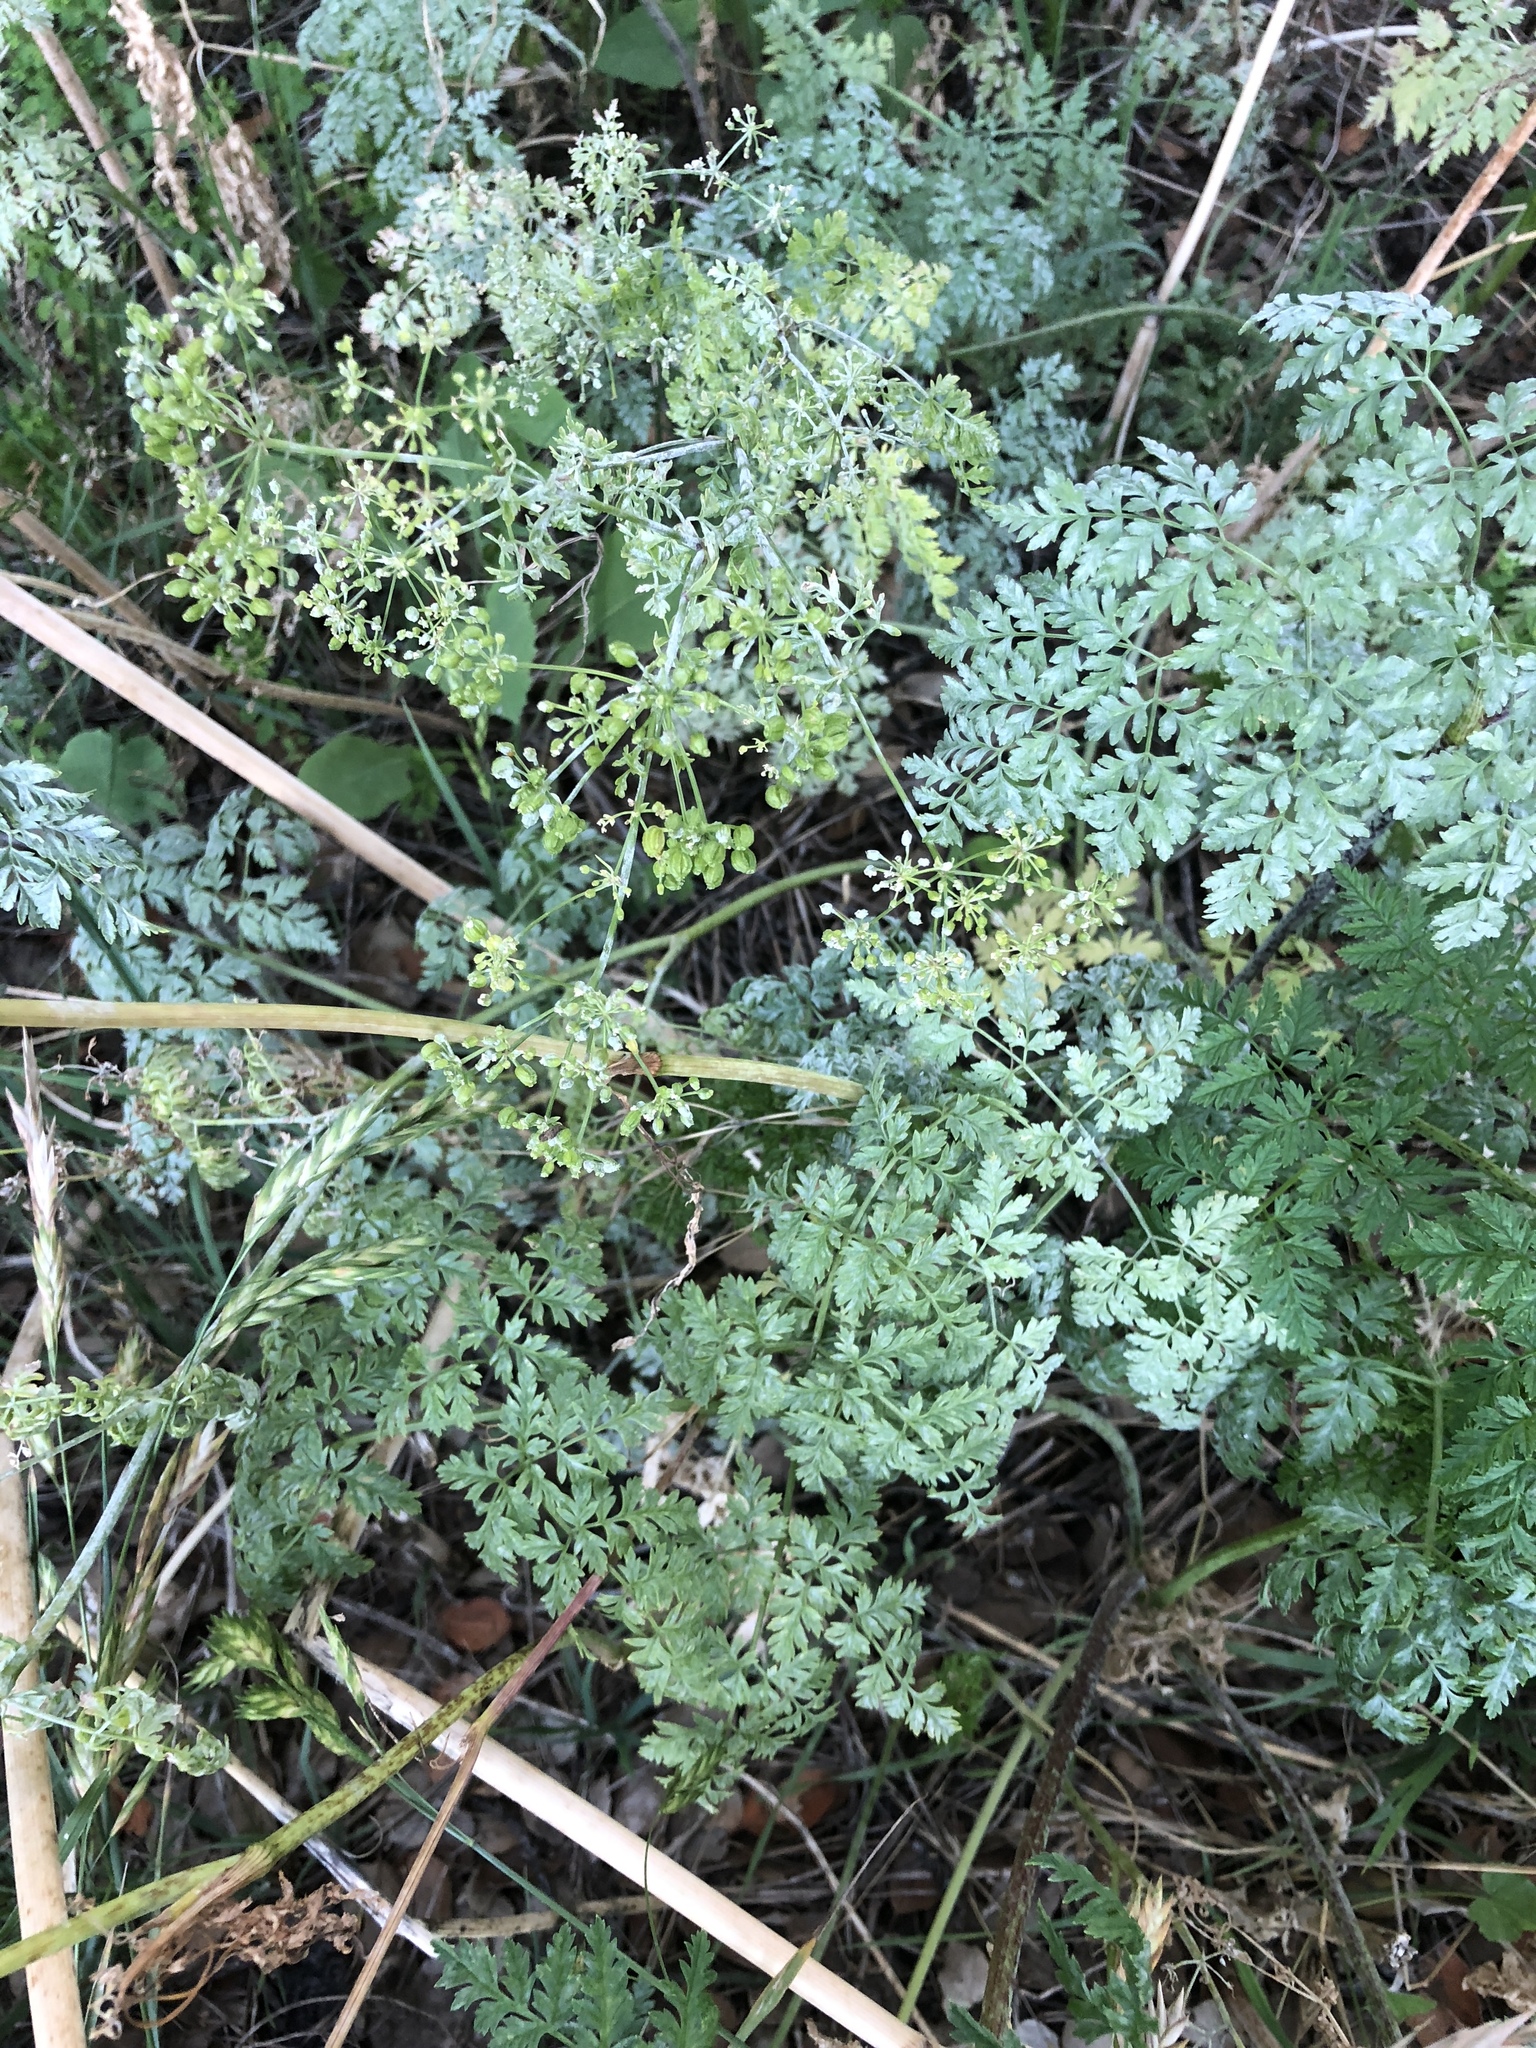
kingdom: Plantae
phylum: Tracheophyta
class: Magnoliopsida
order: Apiales
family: Apiaceae
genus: Conium
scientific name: Conium maculatum
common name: Hemlock
